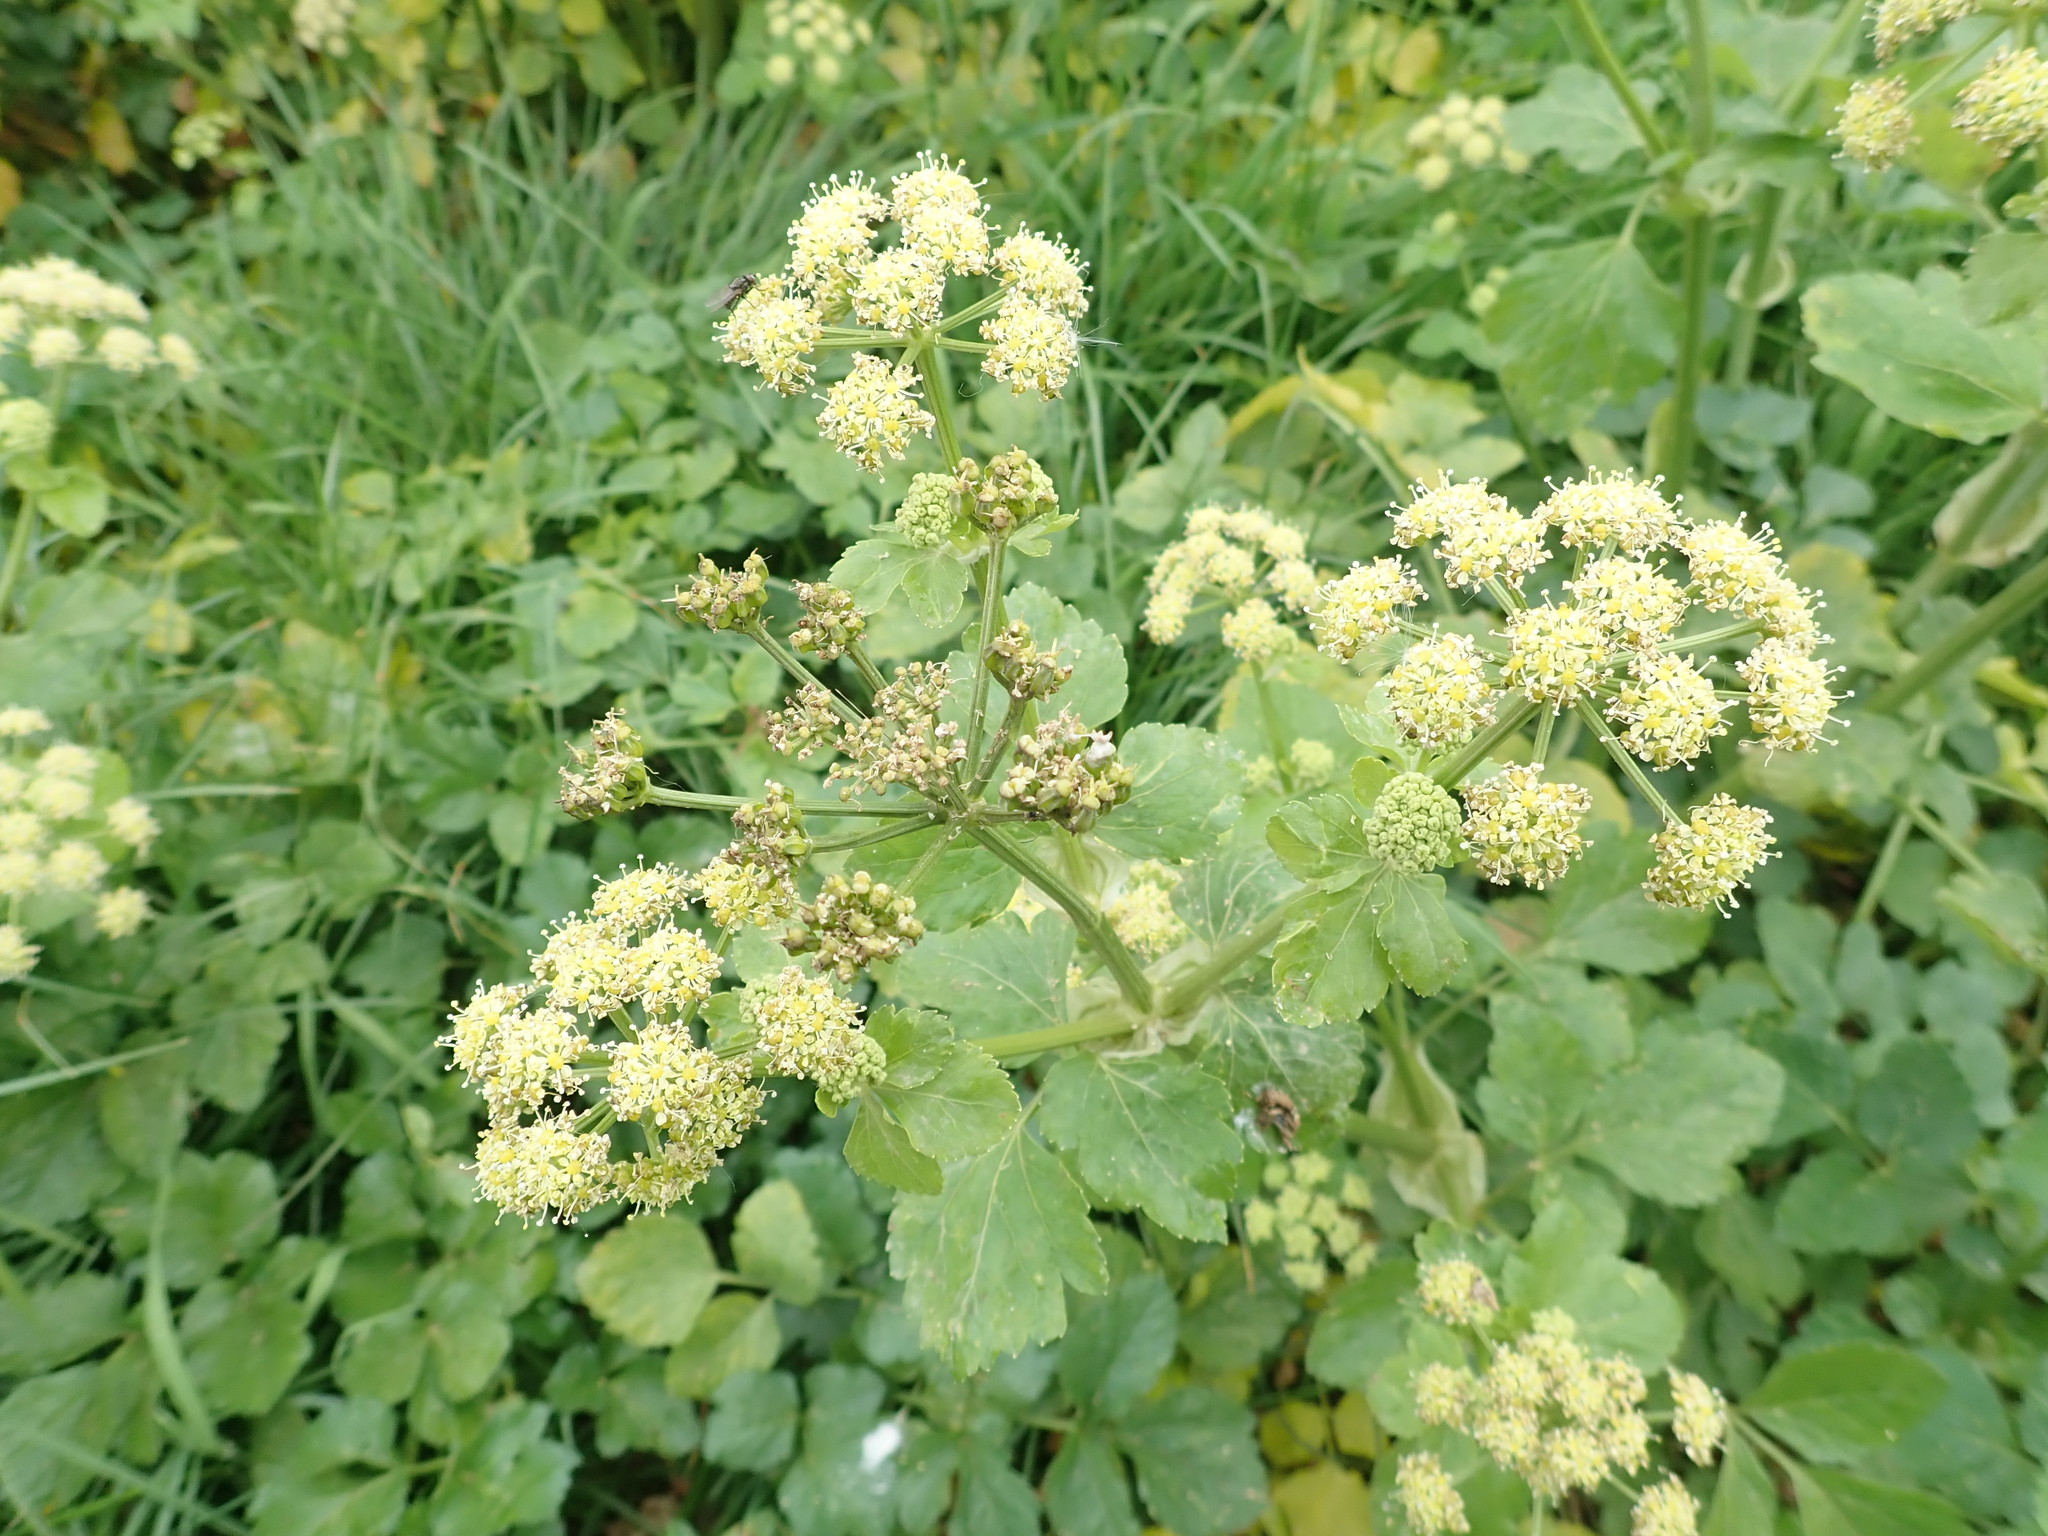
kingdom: Plantae
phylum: Tracheophyta
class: Magnoliopsida
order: Apiales
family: Apiaceae
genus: Smyrnium
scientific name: Smyrnium olusatrum
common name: Alexanders
